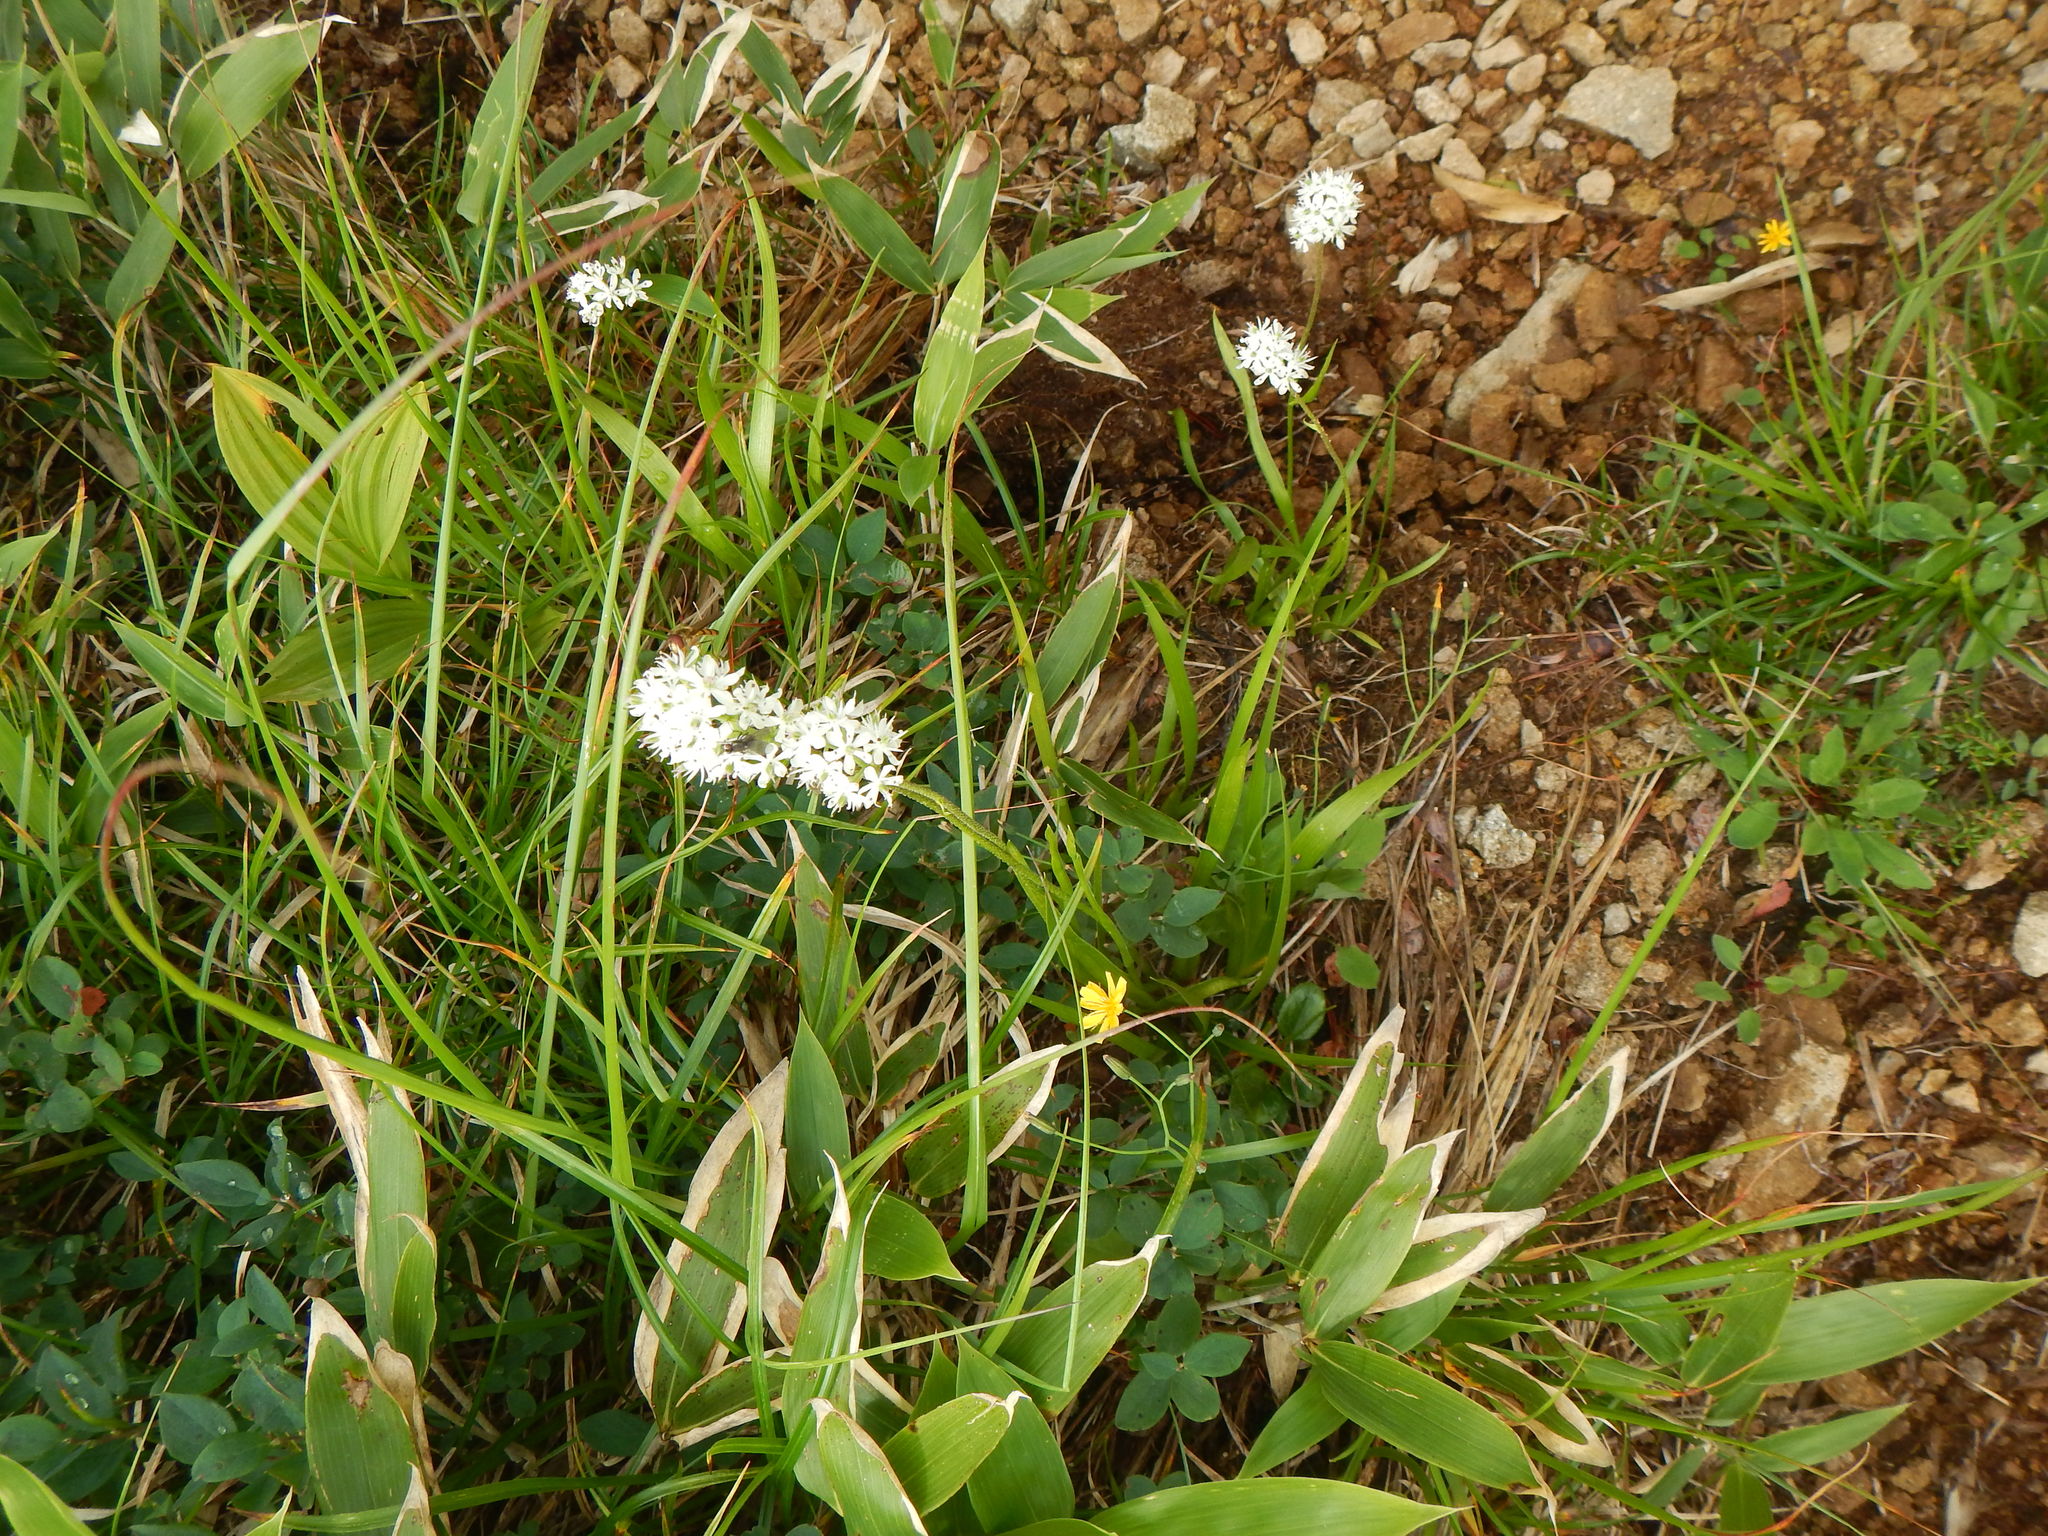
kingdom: Plantae
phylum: Tracheophyta
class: Liliopsida
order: Alismatales
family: Tofieldiaceae
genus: Triantha
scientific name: Triantha japonica
